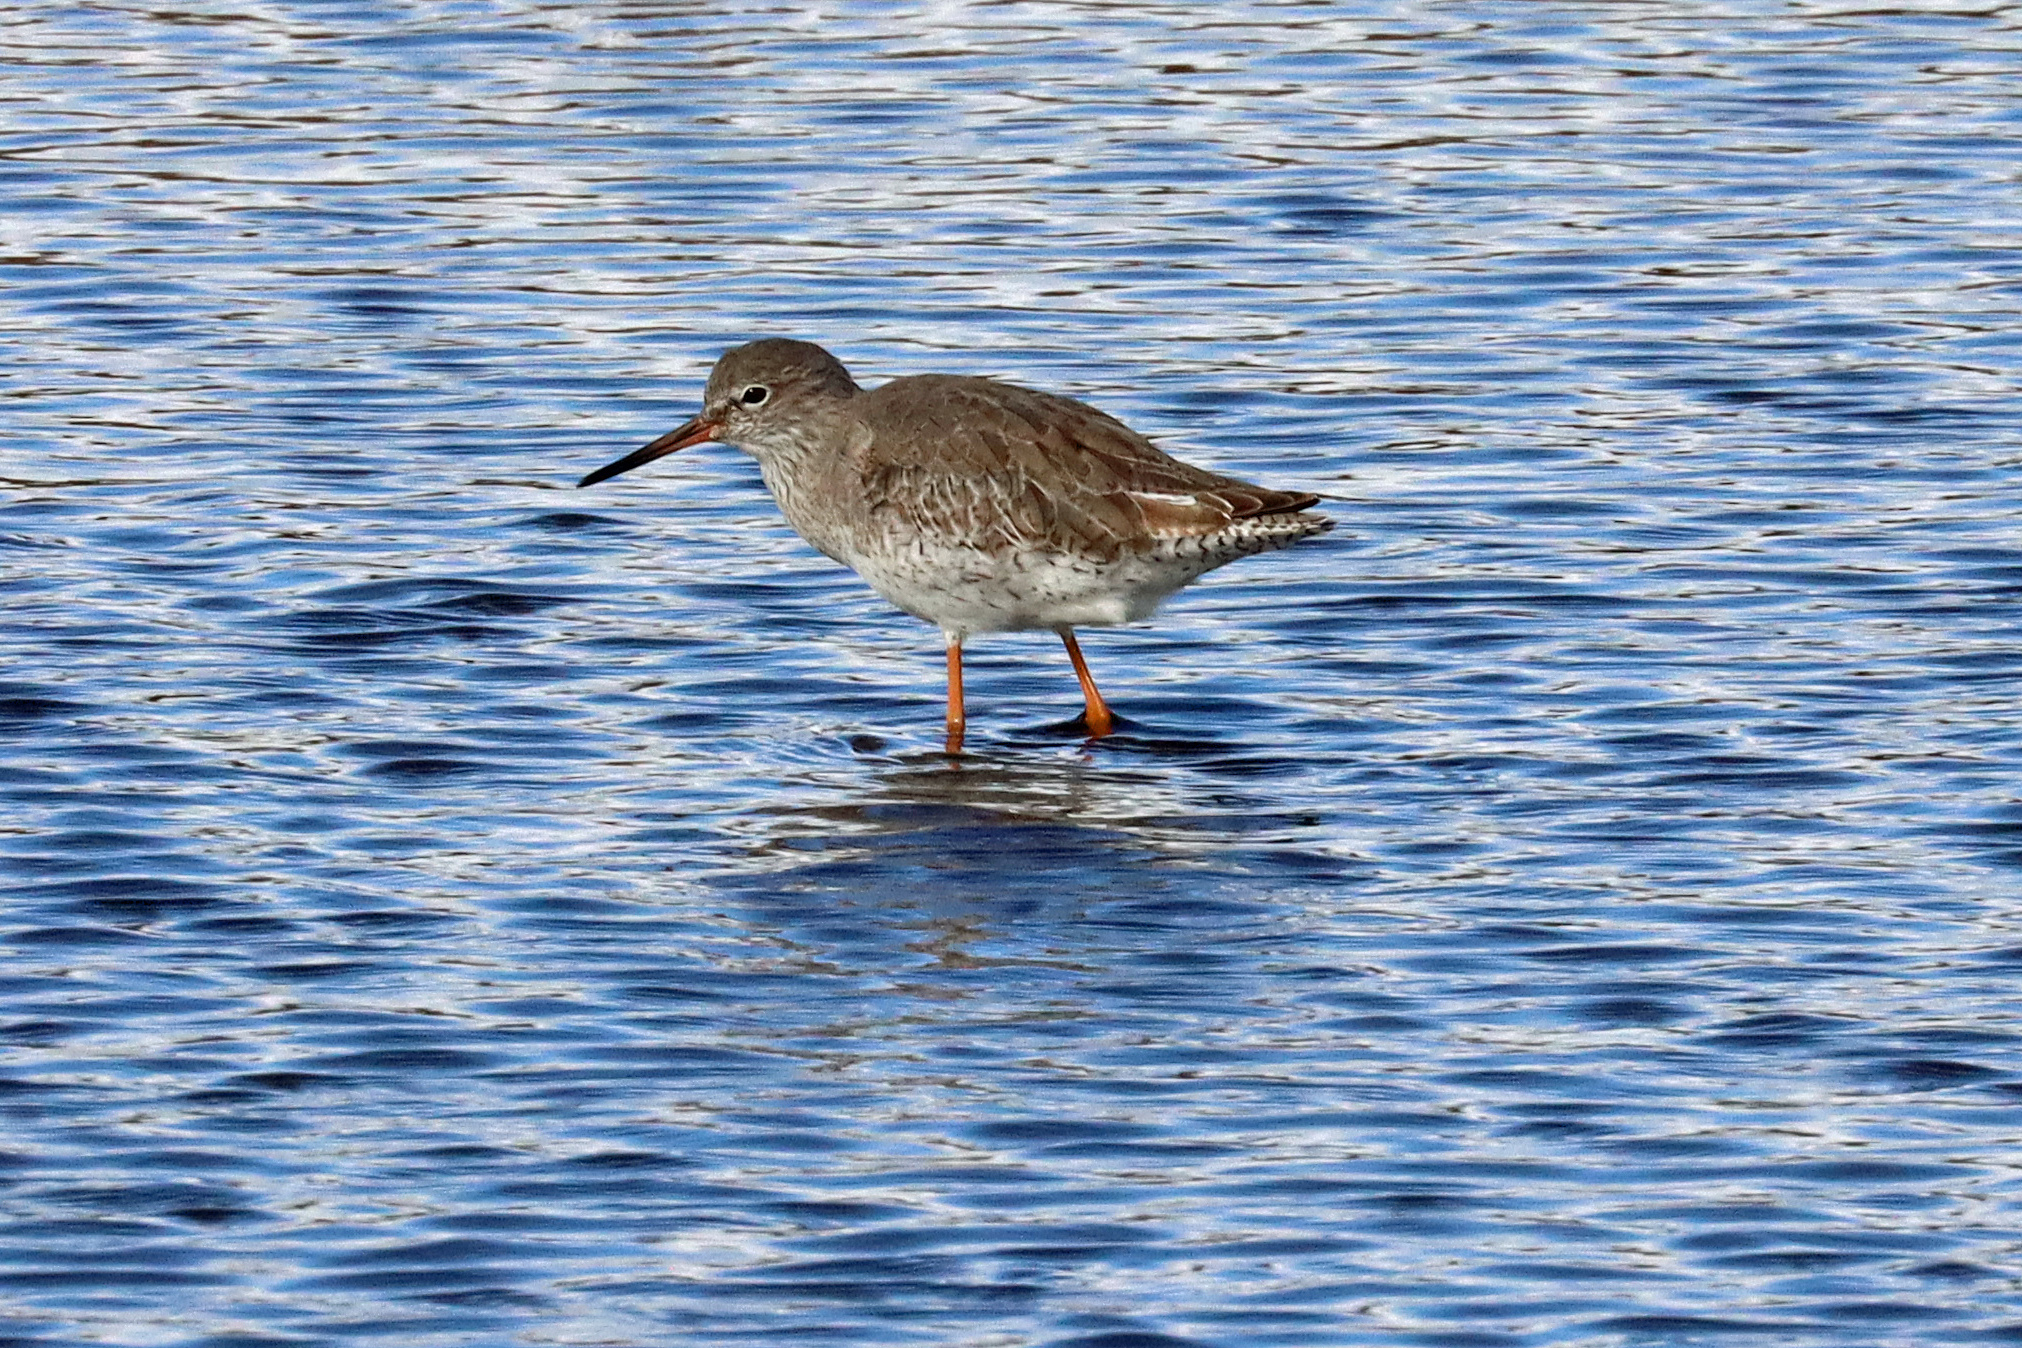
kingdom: Animalia
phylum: Chordata
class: Aves
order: Charadriiformes
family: Scolopacidae
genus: Tringa
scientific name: Tringa totanus
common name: Common redshank
